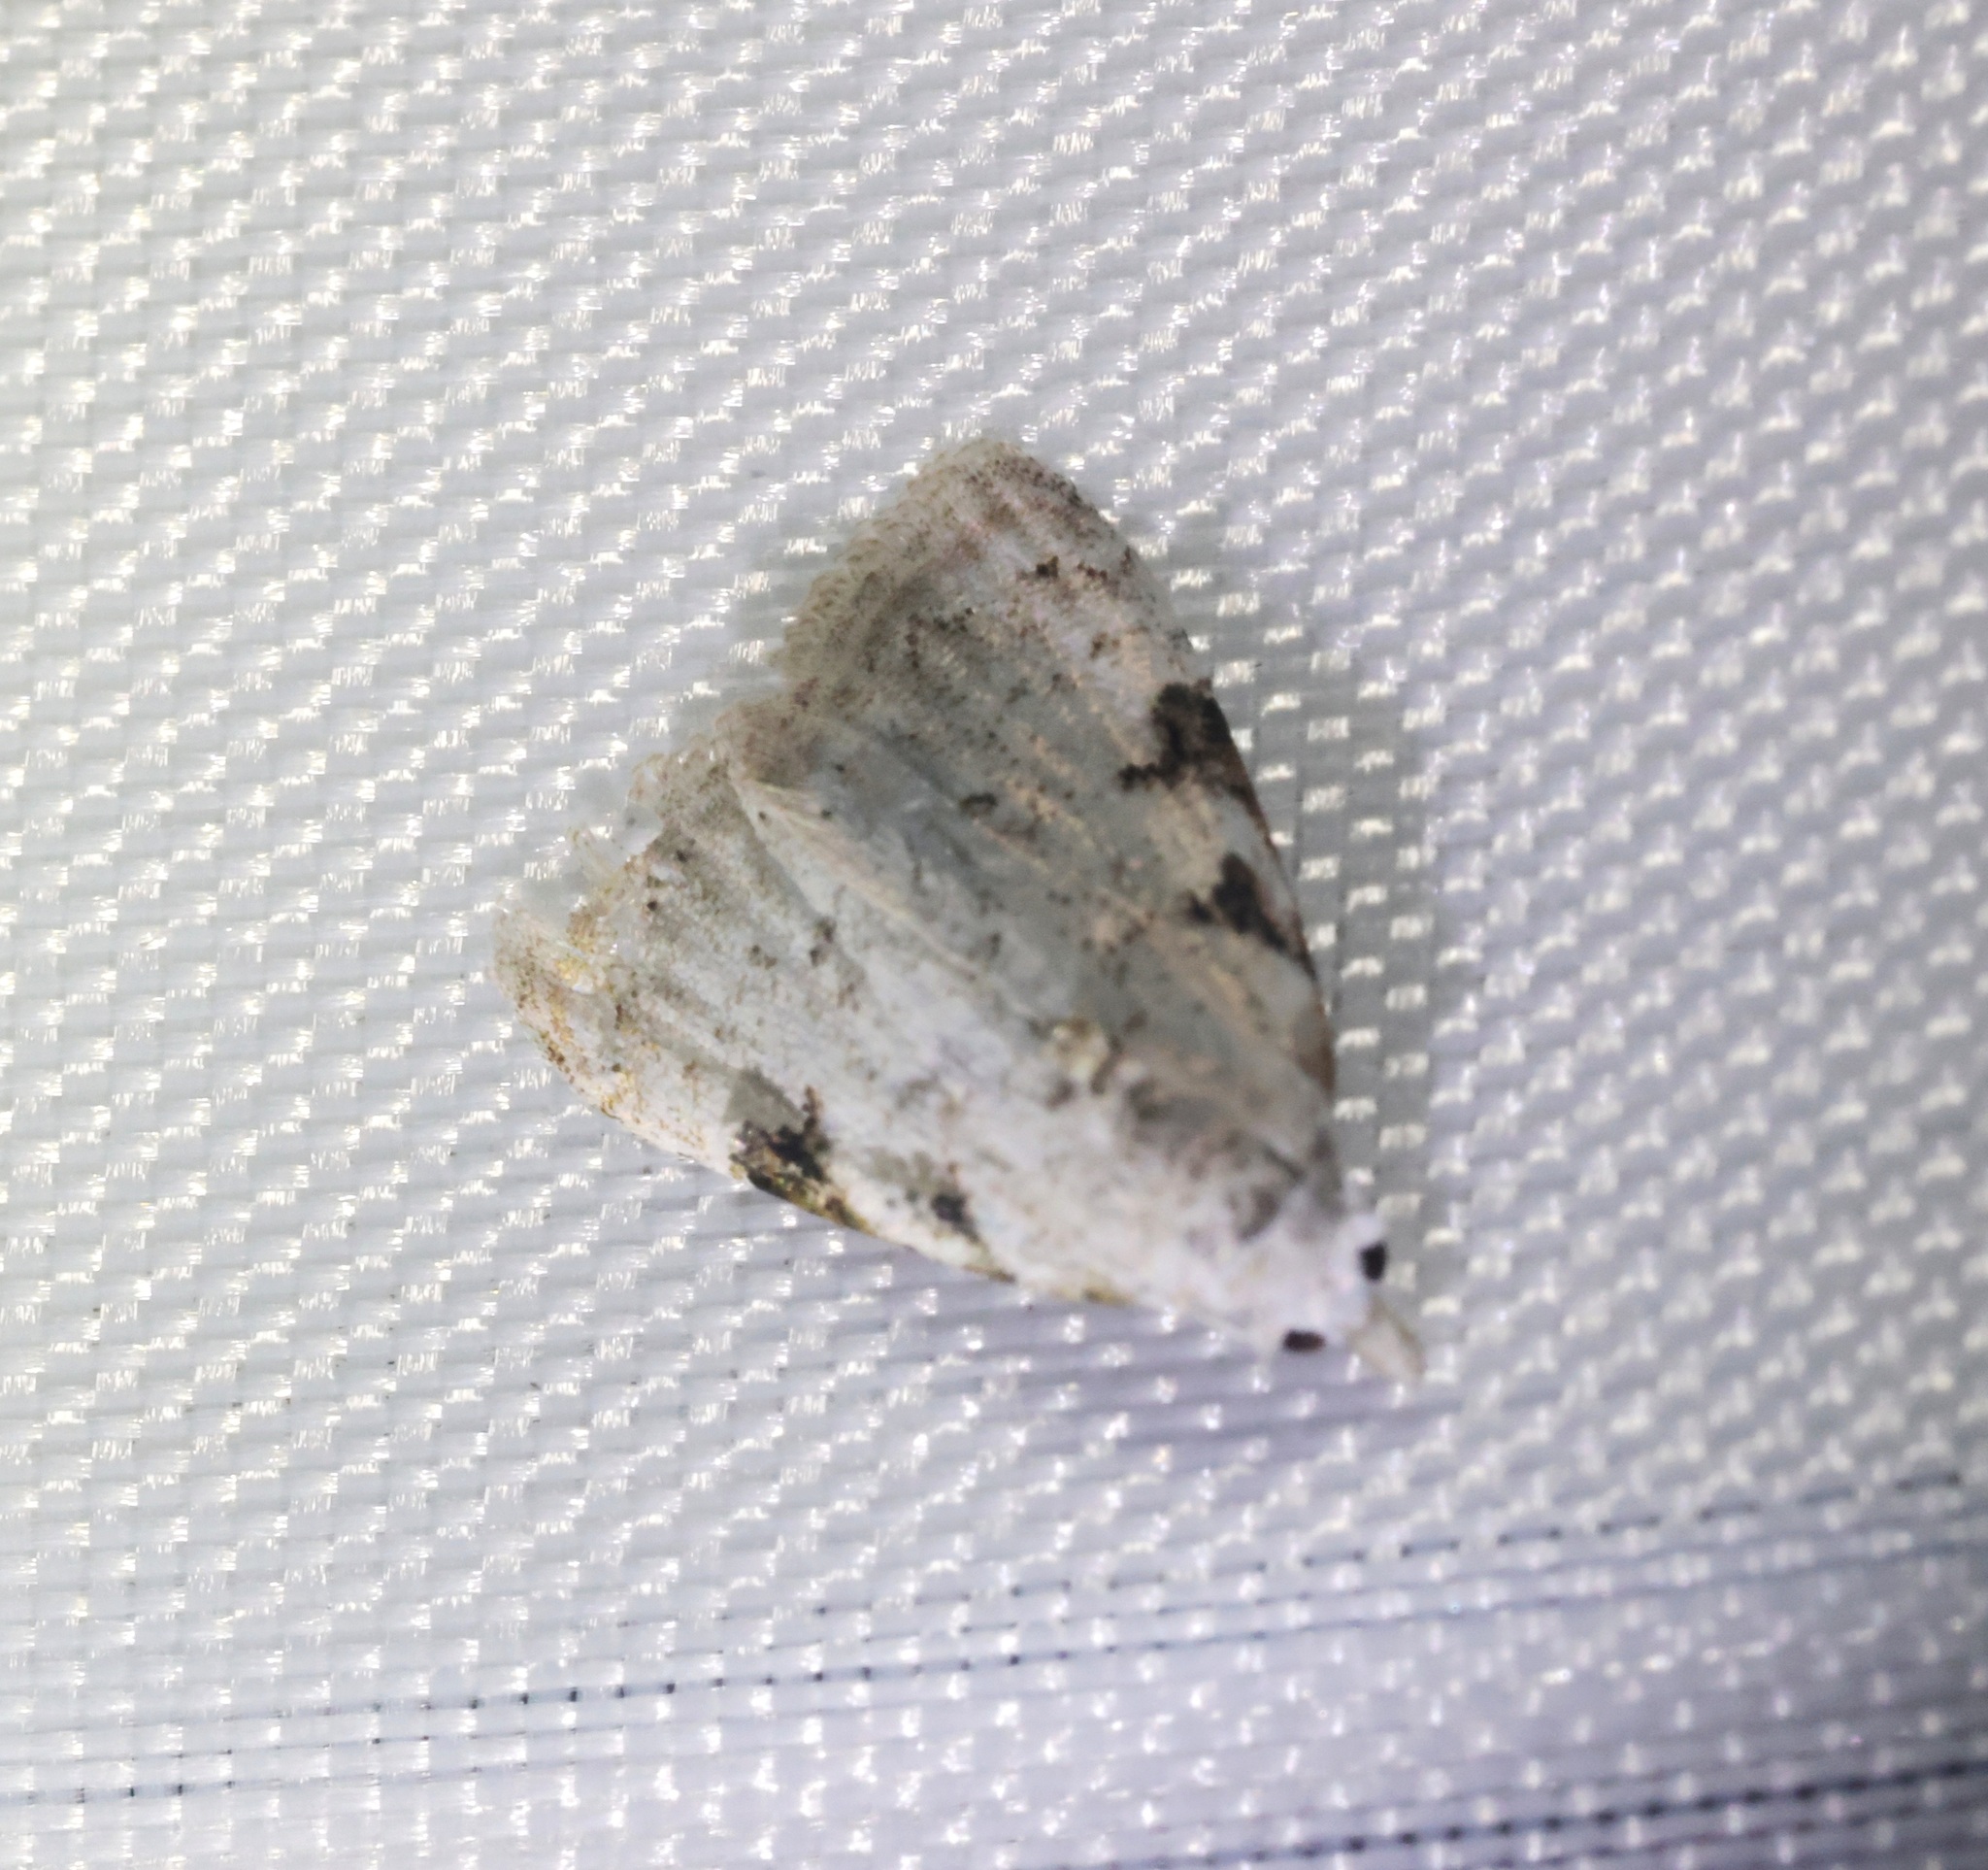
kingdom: Animalia
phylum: Arthropoda
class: Insecta
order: Lepidoptera
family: Nolidae
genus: Nola
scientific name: Nola pascua
